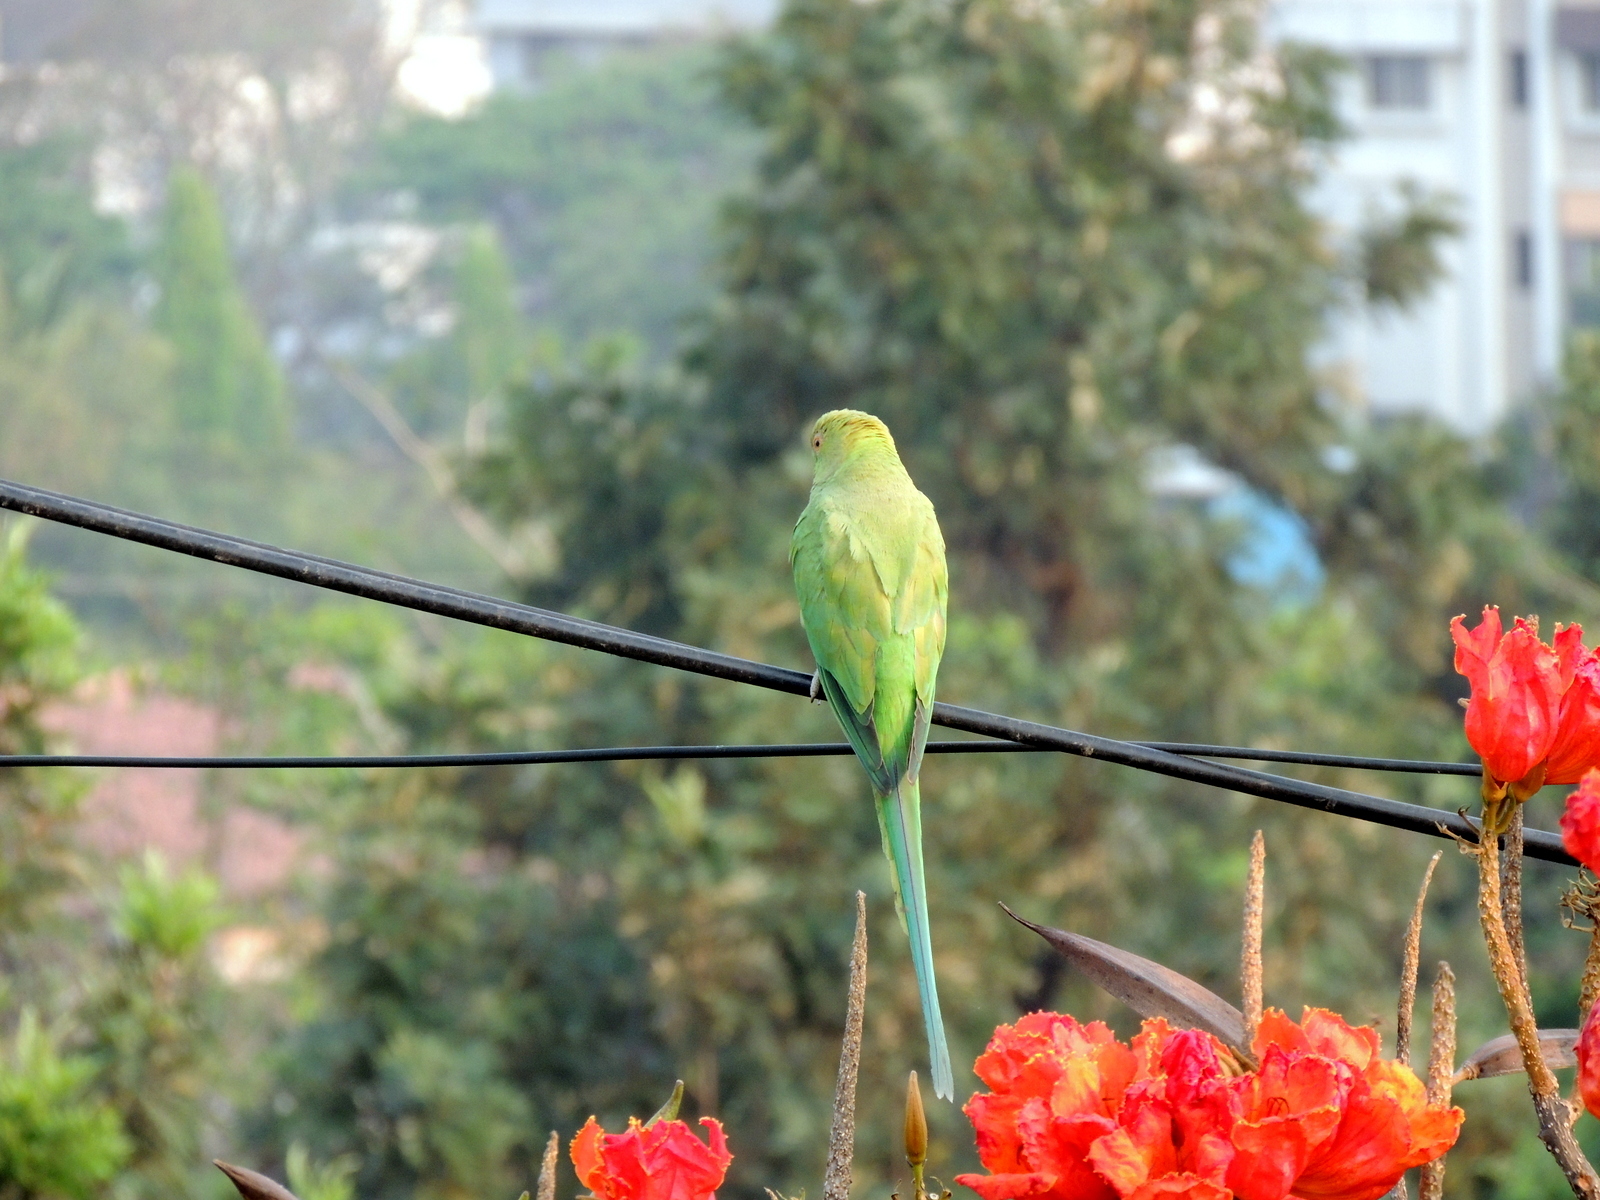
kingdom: Animalia
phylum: Chordata
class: Aves
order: Psittaciformes
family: Psittacidae
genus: Psittacula
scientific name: Psittacula krameri
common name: Rose-ringed parakeet
